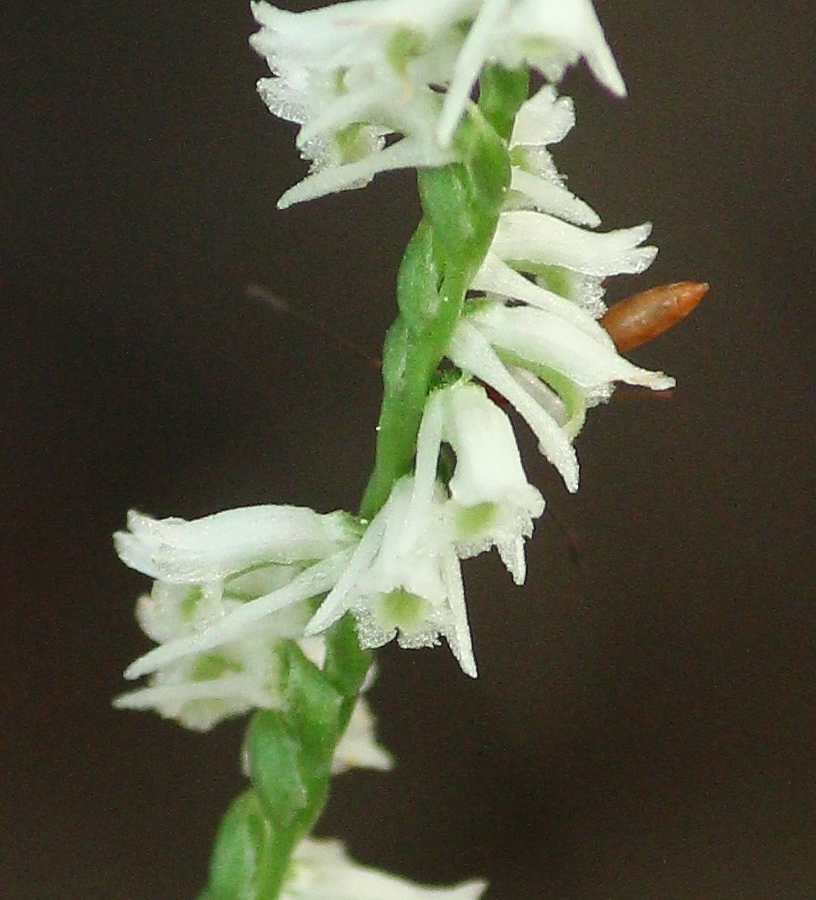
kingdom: Plantae
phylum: Tracheophyta
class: Liliopsida
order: Asparagales
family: Orchidaceae
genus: Spiranthes
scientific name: Spiranthes lacera
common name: Northern slender ladies'-tresses
